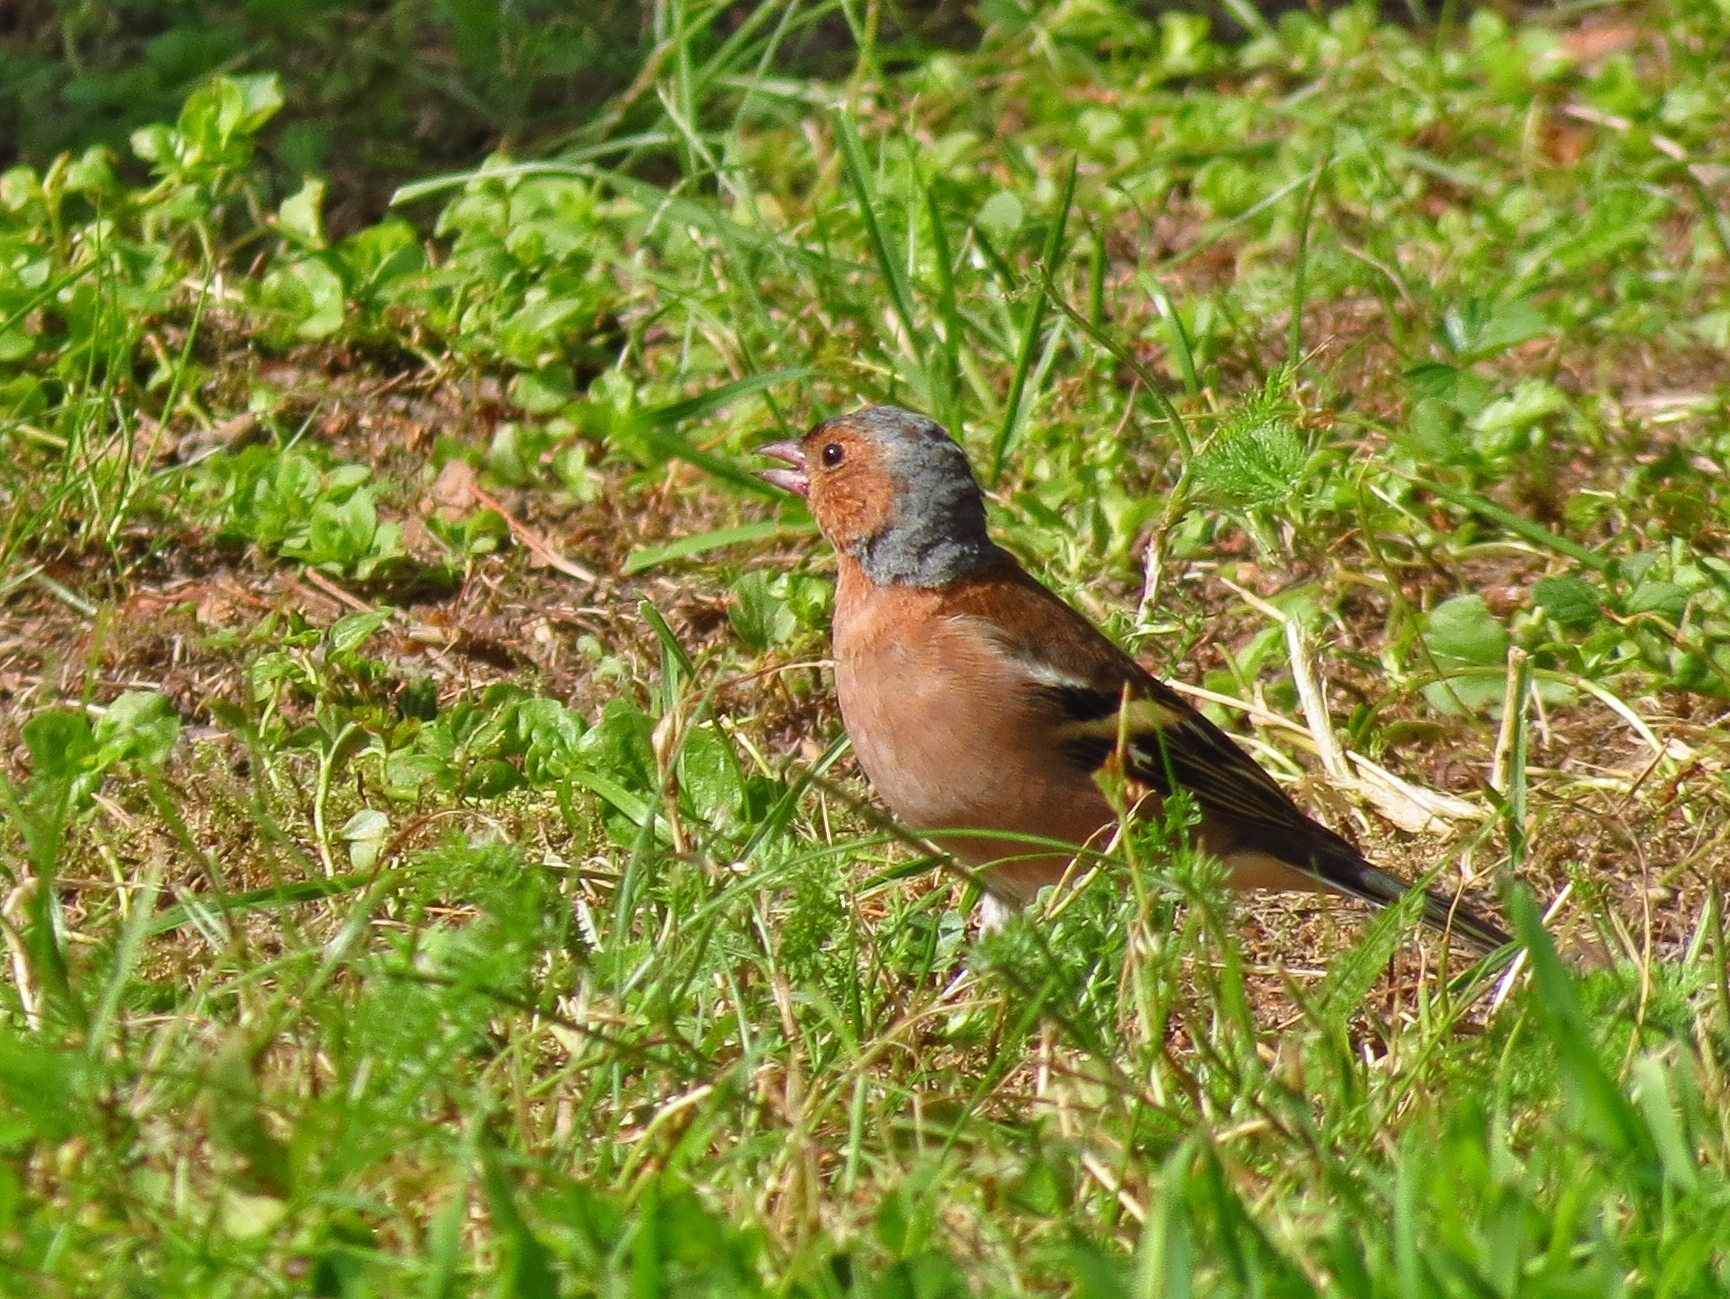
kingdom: Animalia
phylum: Chordata
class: Aves
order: Passeriformes
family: Fringillidae
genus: Fringilla
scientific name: Fringilla coelebs
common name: Common chaffinch
